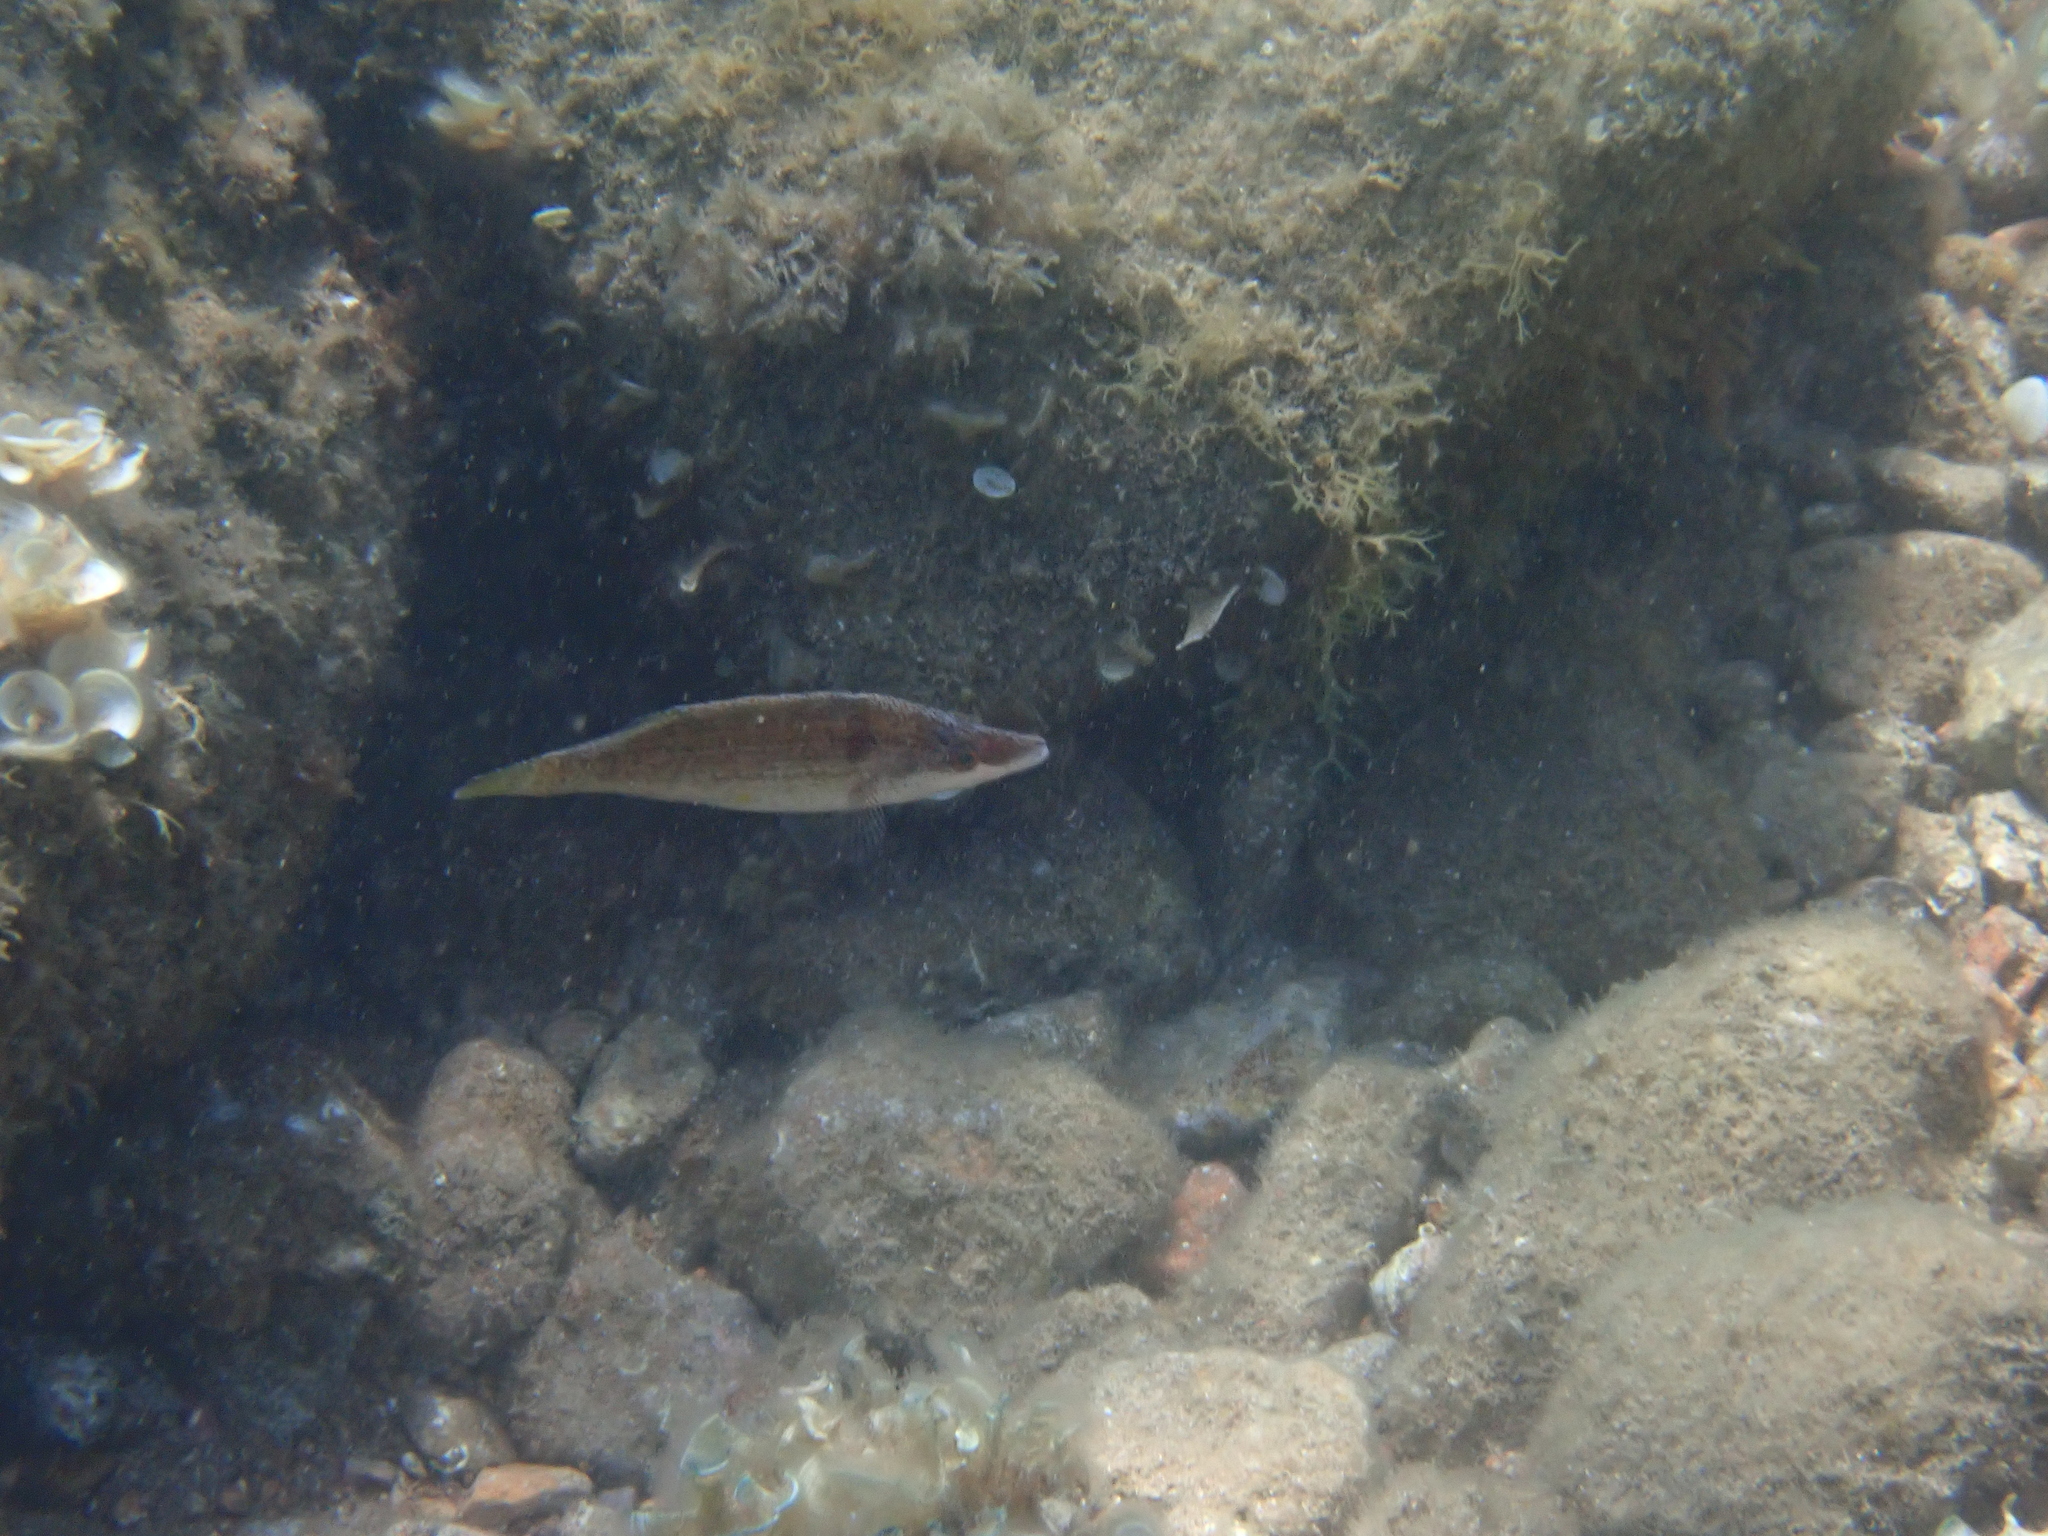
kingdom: Animalia
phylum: Chordata
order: Perciformes
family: Labridae
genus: Symphodus
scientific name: Symphodus rostratus
